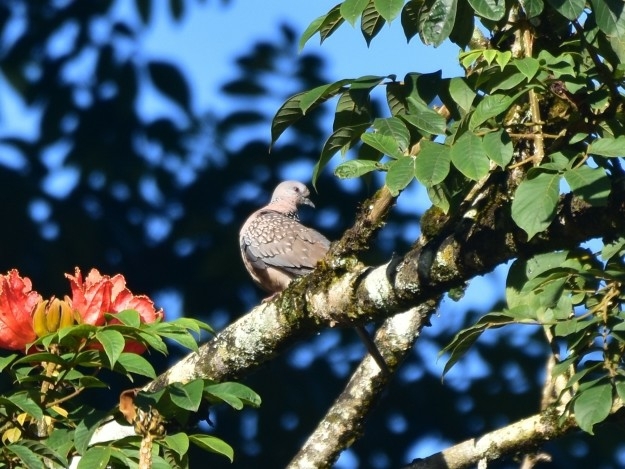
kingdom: Animalia
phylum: Chordata
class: Aves
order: Columbiformes
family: Columbidae
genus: Spilopelia
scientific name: Spilopelia chinensis
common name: Spotted dove
